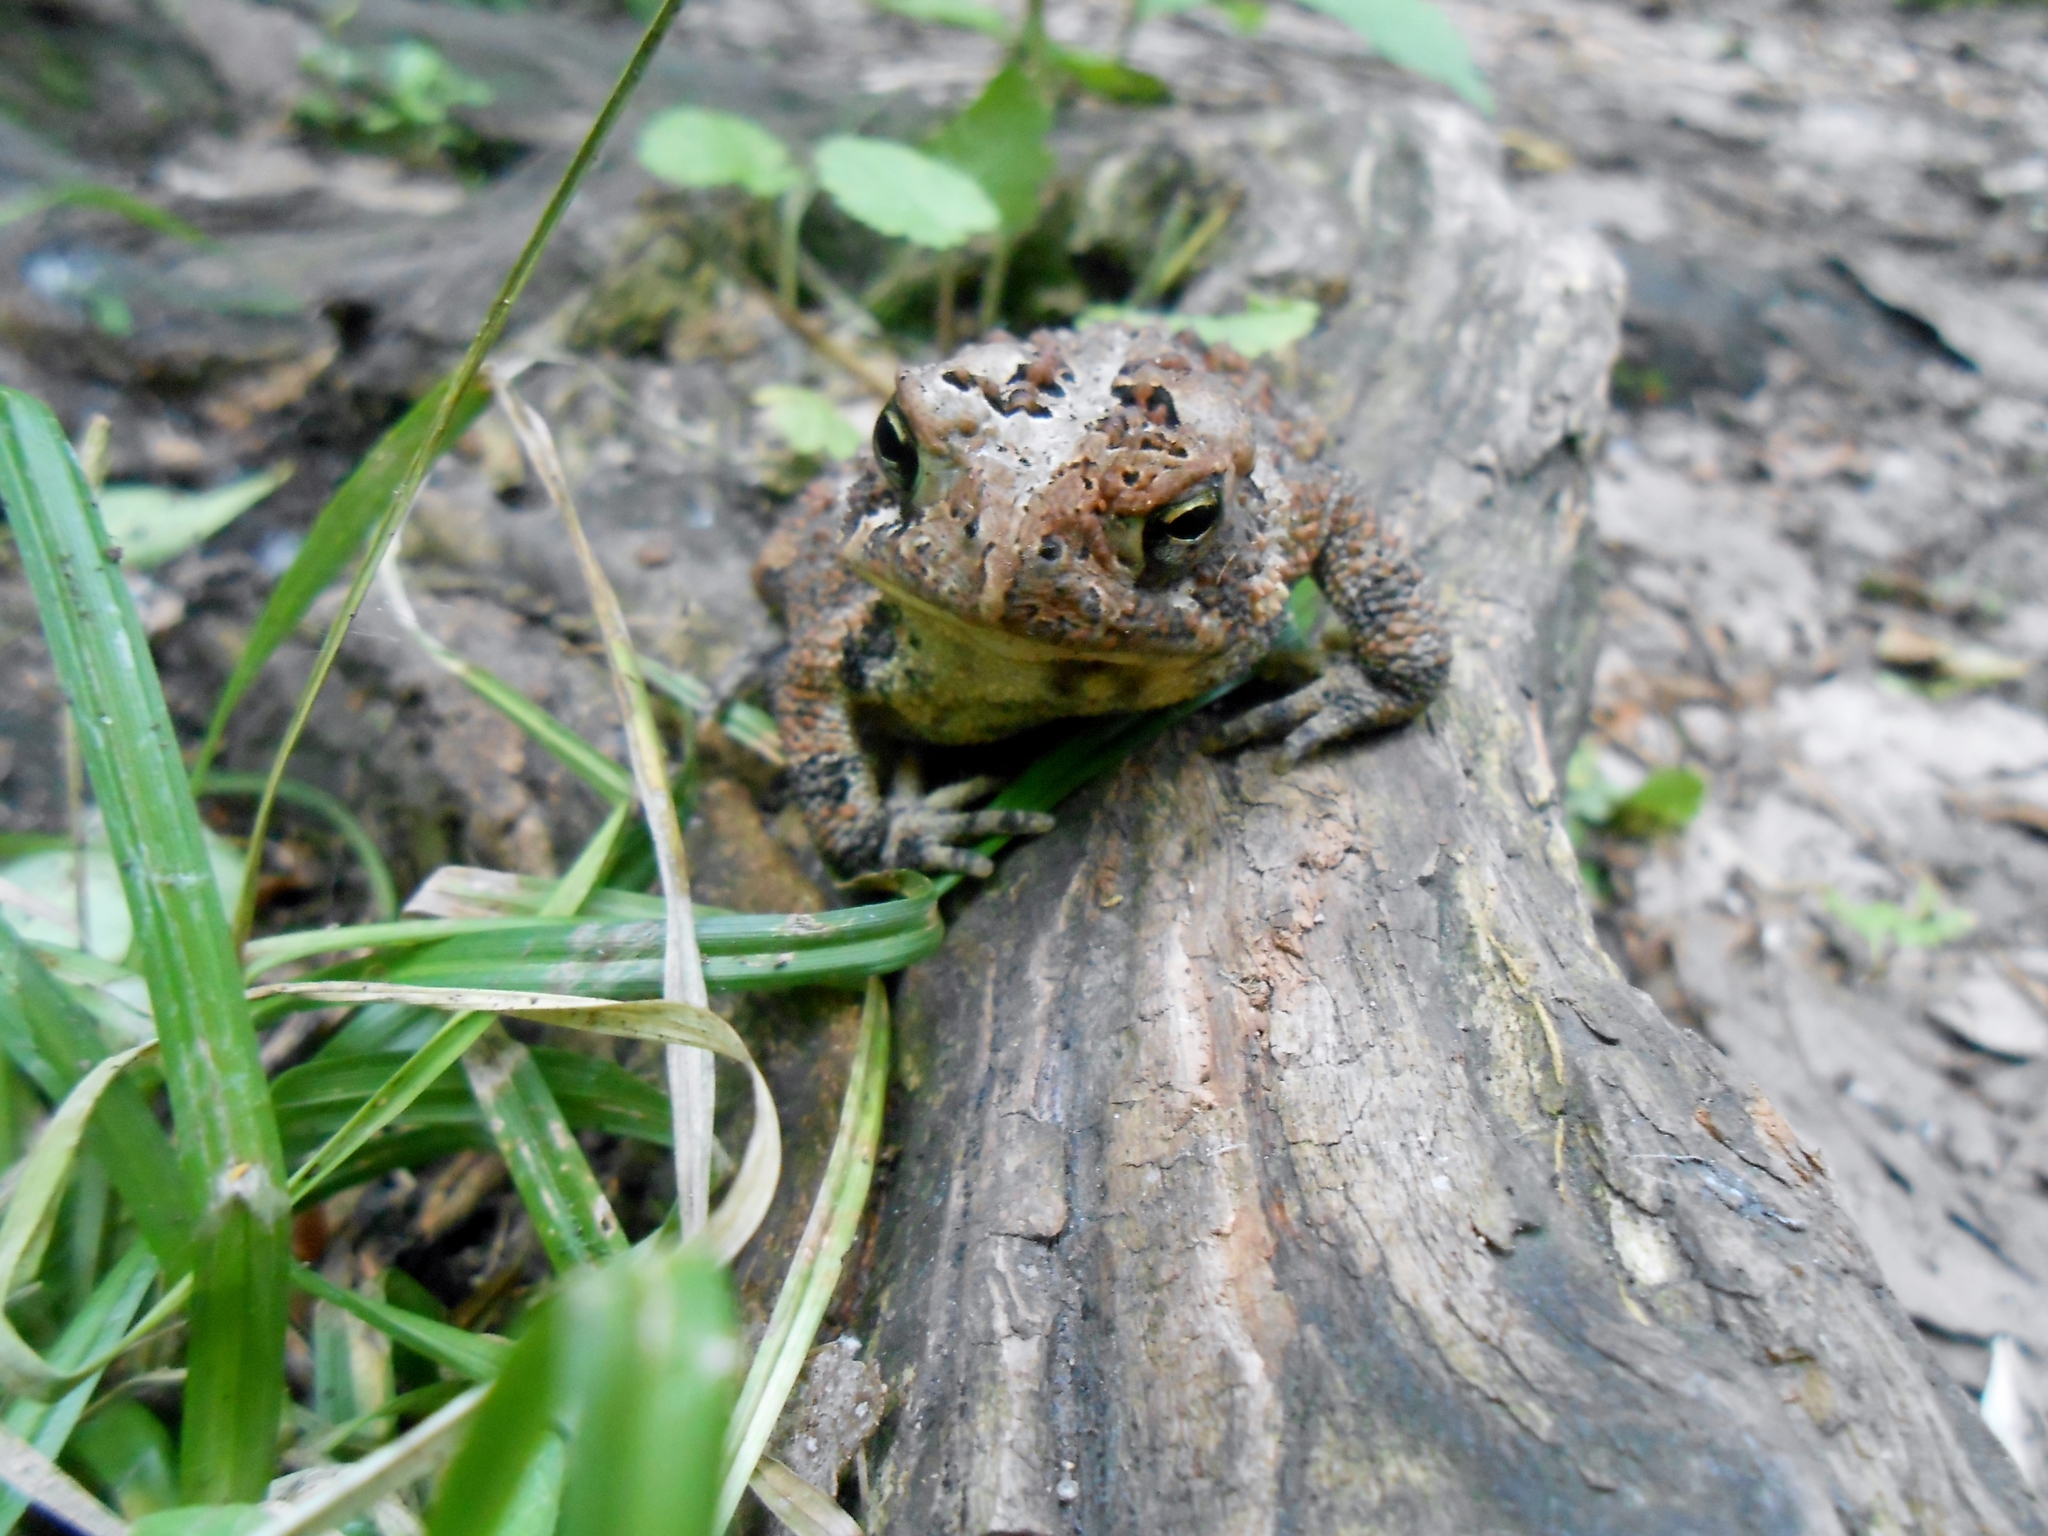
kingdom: Animalia
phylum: Chordata
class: Amphibia
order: Anura
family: Bufonidae
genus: Anaxyrus
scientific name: Anaxyrus americanus
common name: American toad
